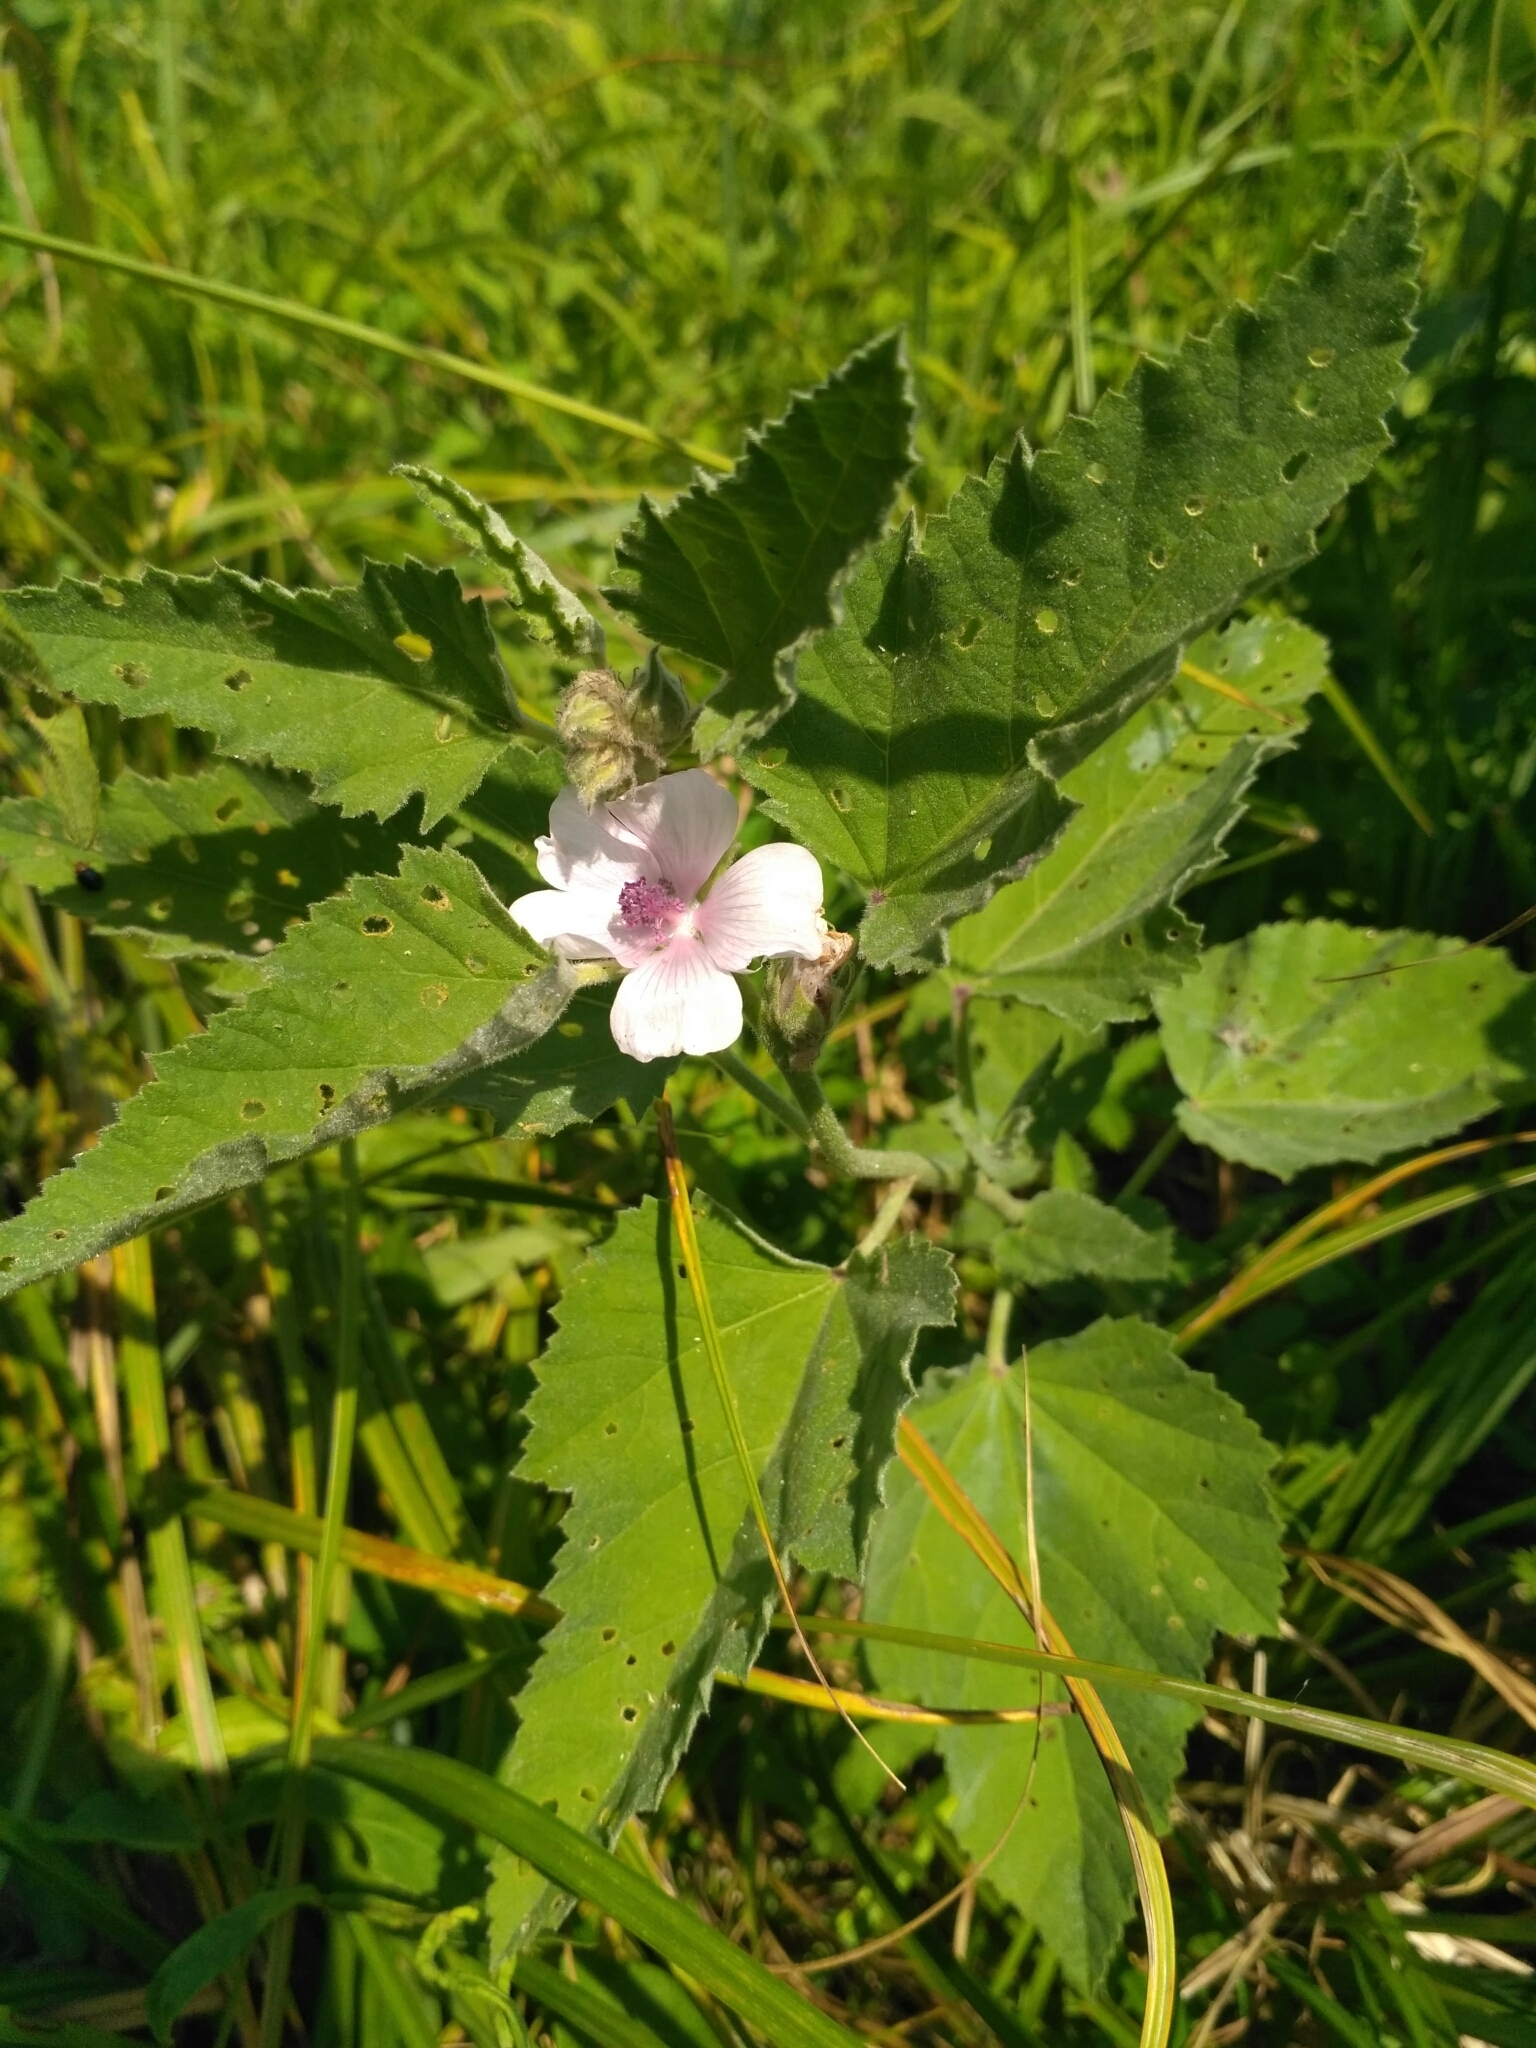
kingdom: Plantae
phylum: Tracheophyta
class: Magnoliopsida
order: Malvales
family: Malvaceae
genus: Althaea
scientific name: Althaea officinalis
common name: Marsh-mallow
